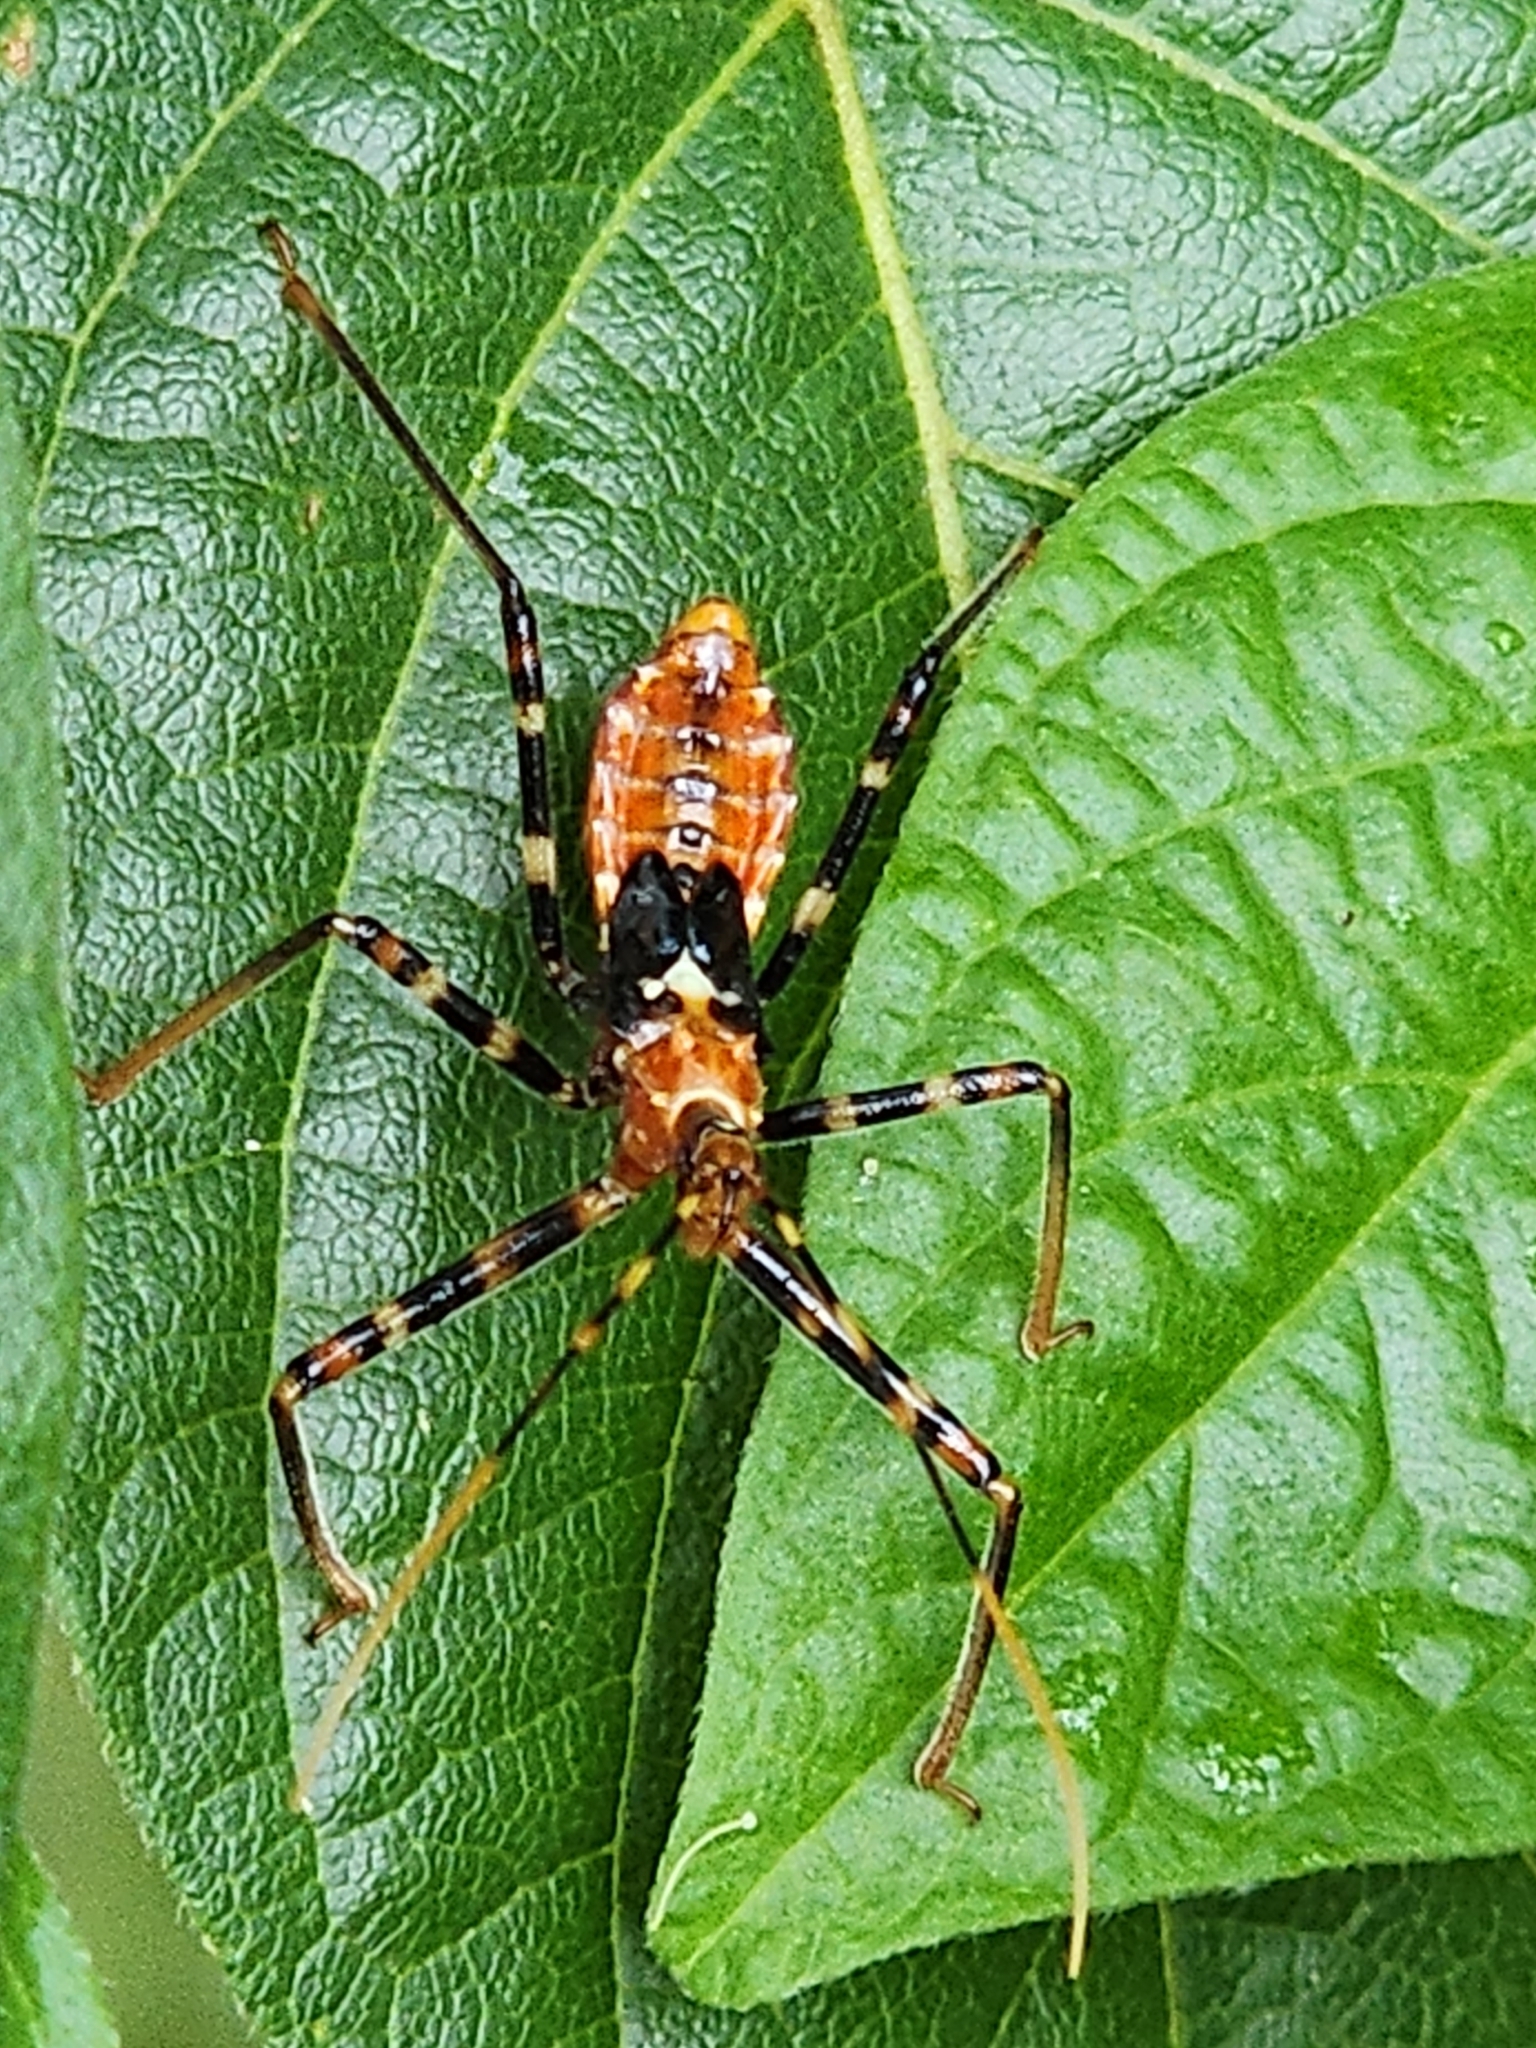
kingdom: Animalia
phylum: Arthropoda
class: Insecta
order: Hemiptera
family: Reduviidae
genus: Pristhesancus
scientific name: Pristhesancus plagipennis
